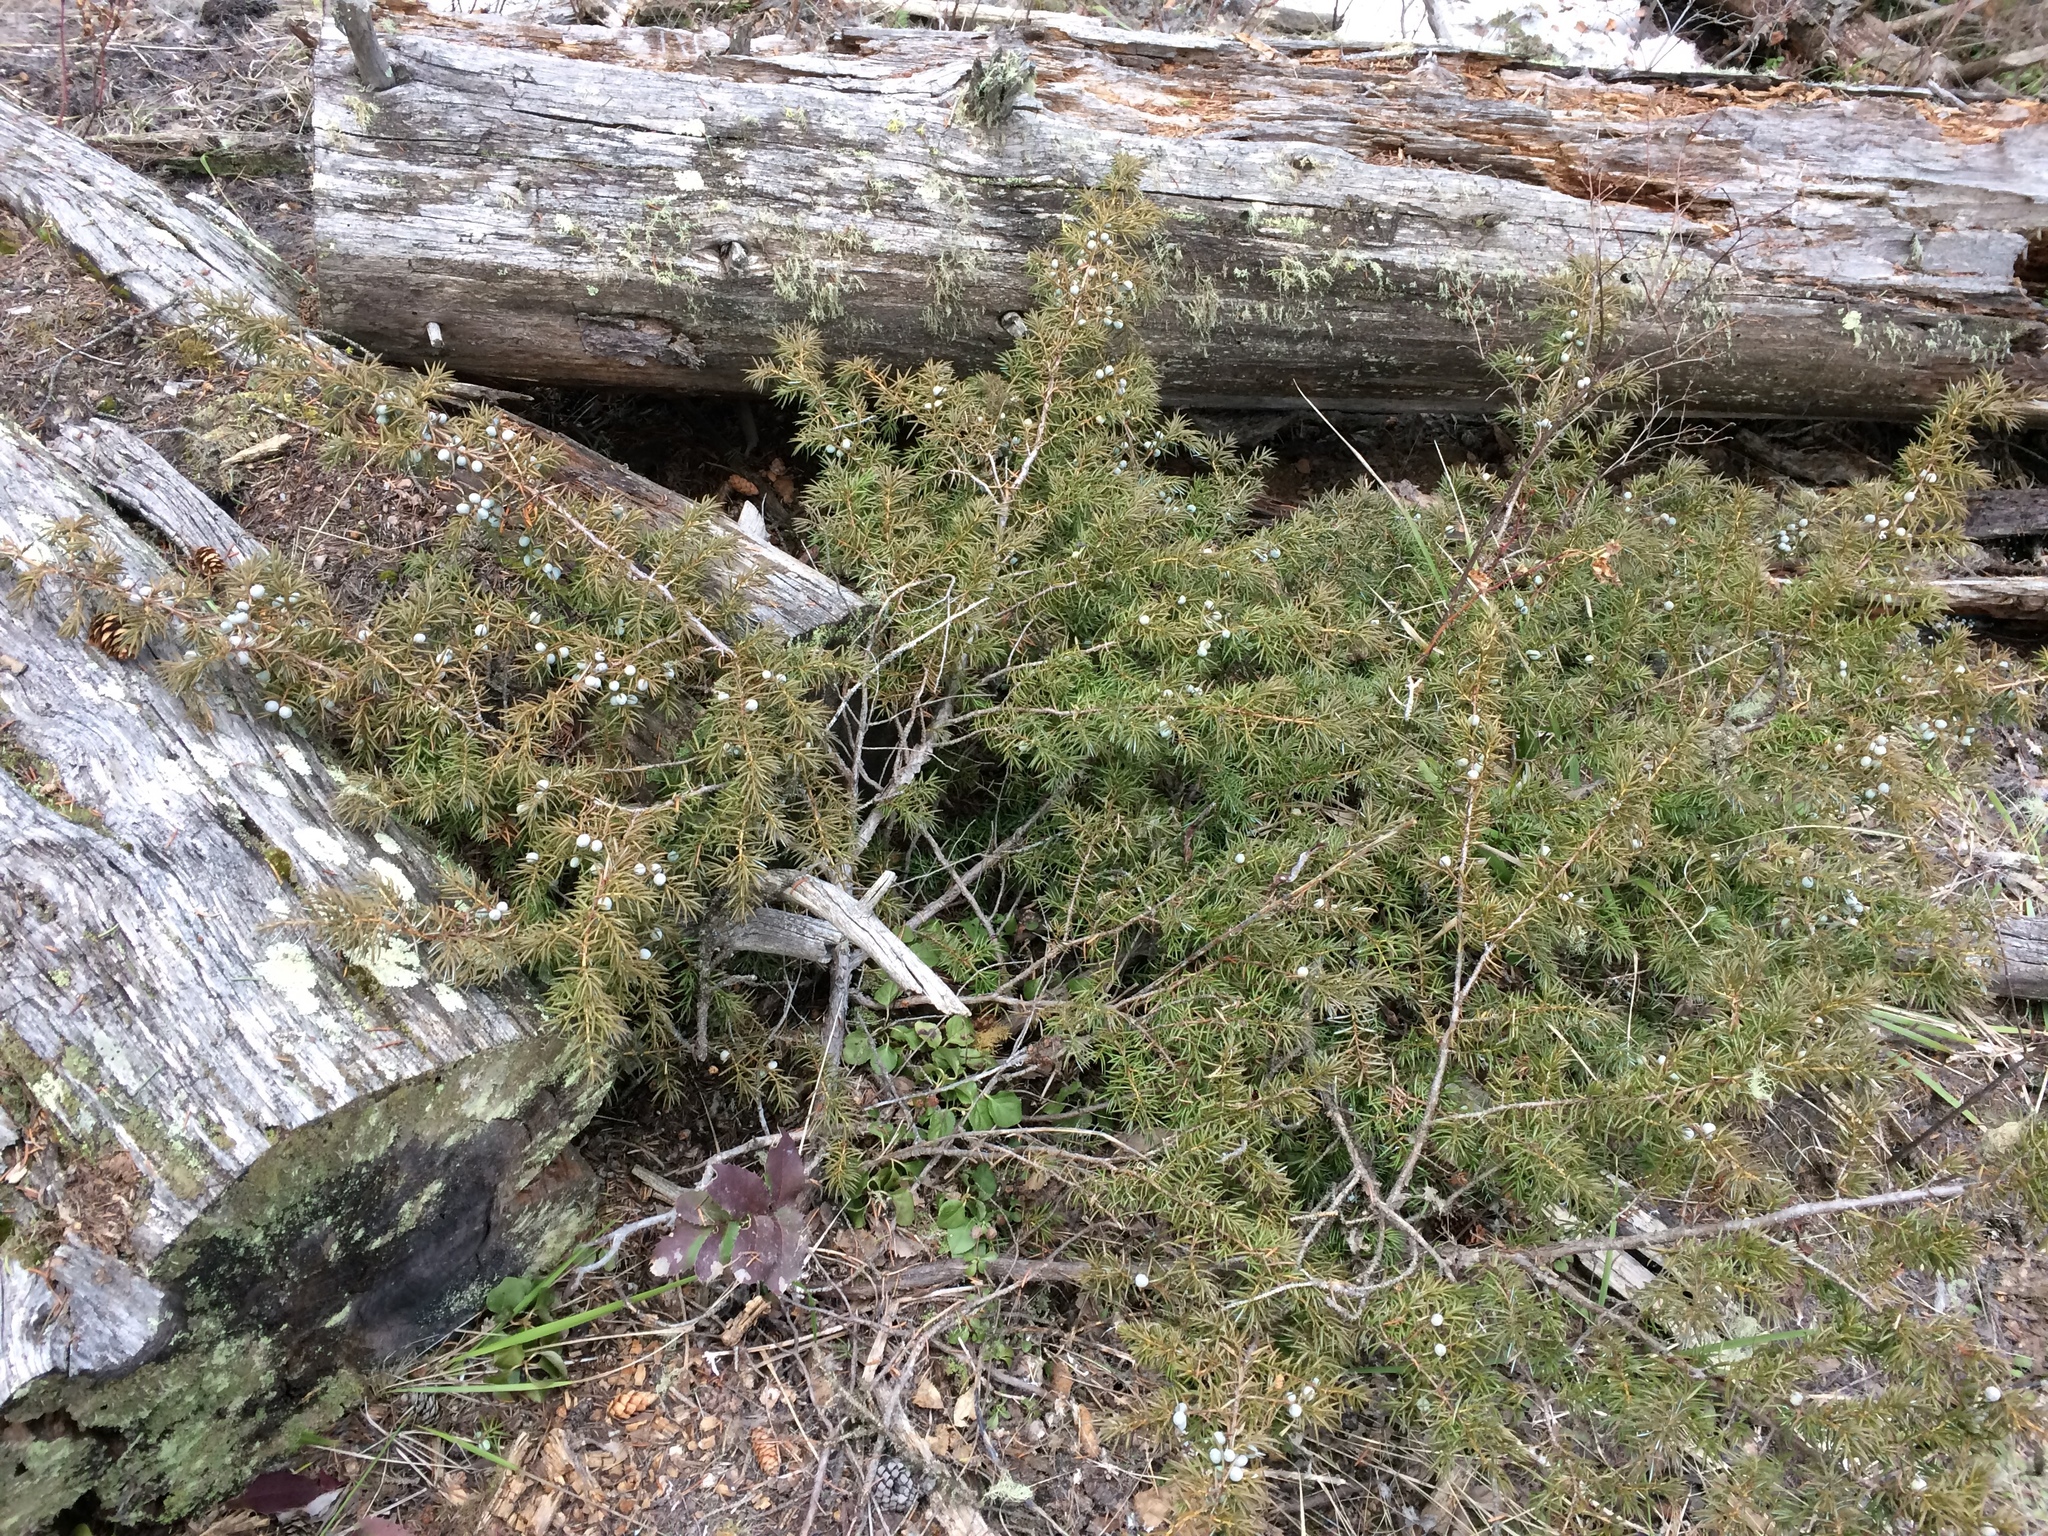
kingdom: Plantae
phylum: Tracheophyta
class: Pinopsida
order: Pinales
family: Cupressaceae
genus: Juniperus
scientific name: Juniperus communis
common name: Common juniper
